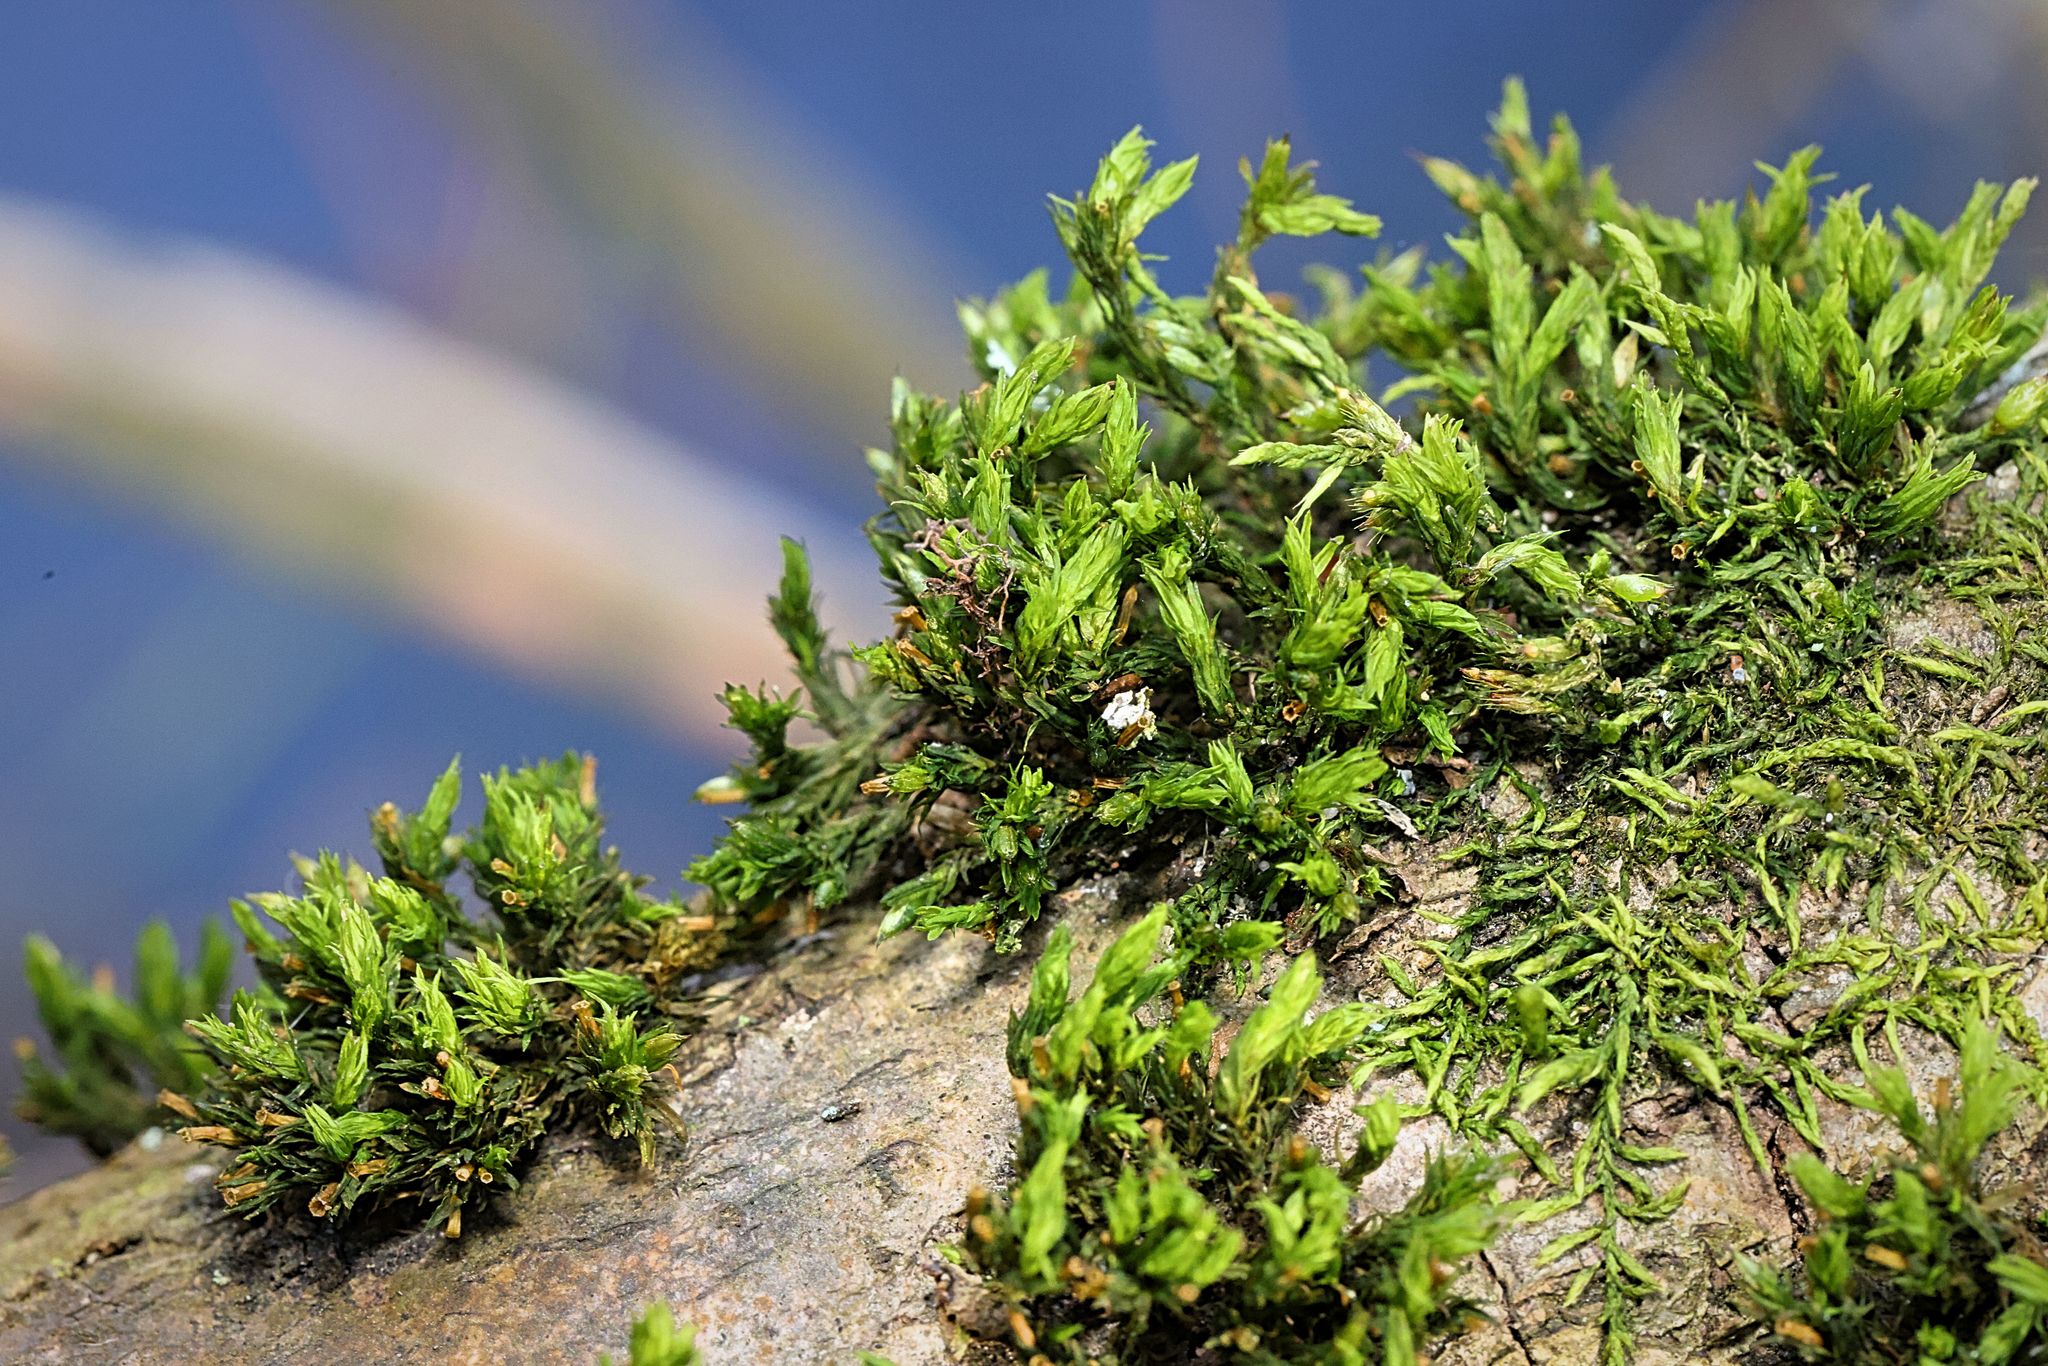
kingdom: Plantae
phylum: Bryophyta
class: Bryopsida
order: Orthotrichales
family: Orthotrichaceae
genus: Lewinskya
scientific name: Lewinskya affinis
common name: Wood bristle-moss
